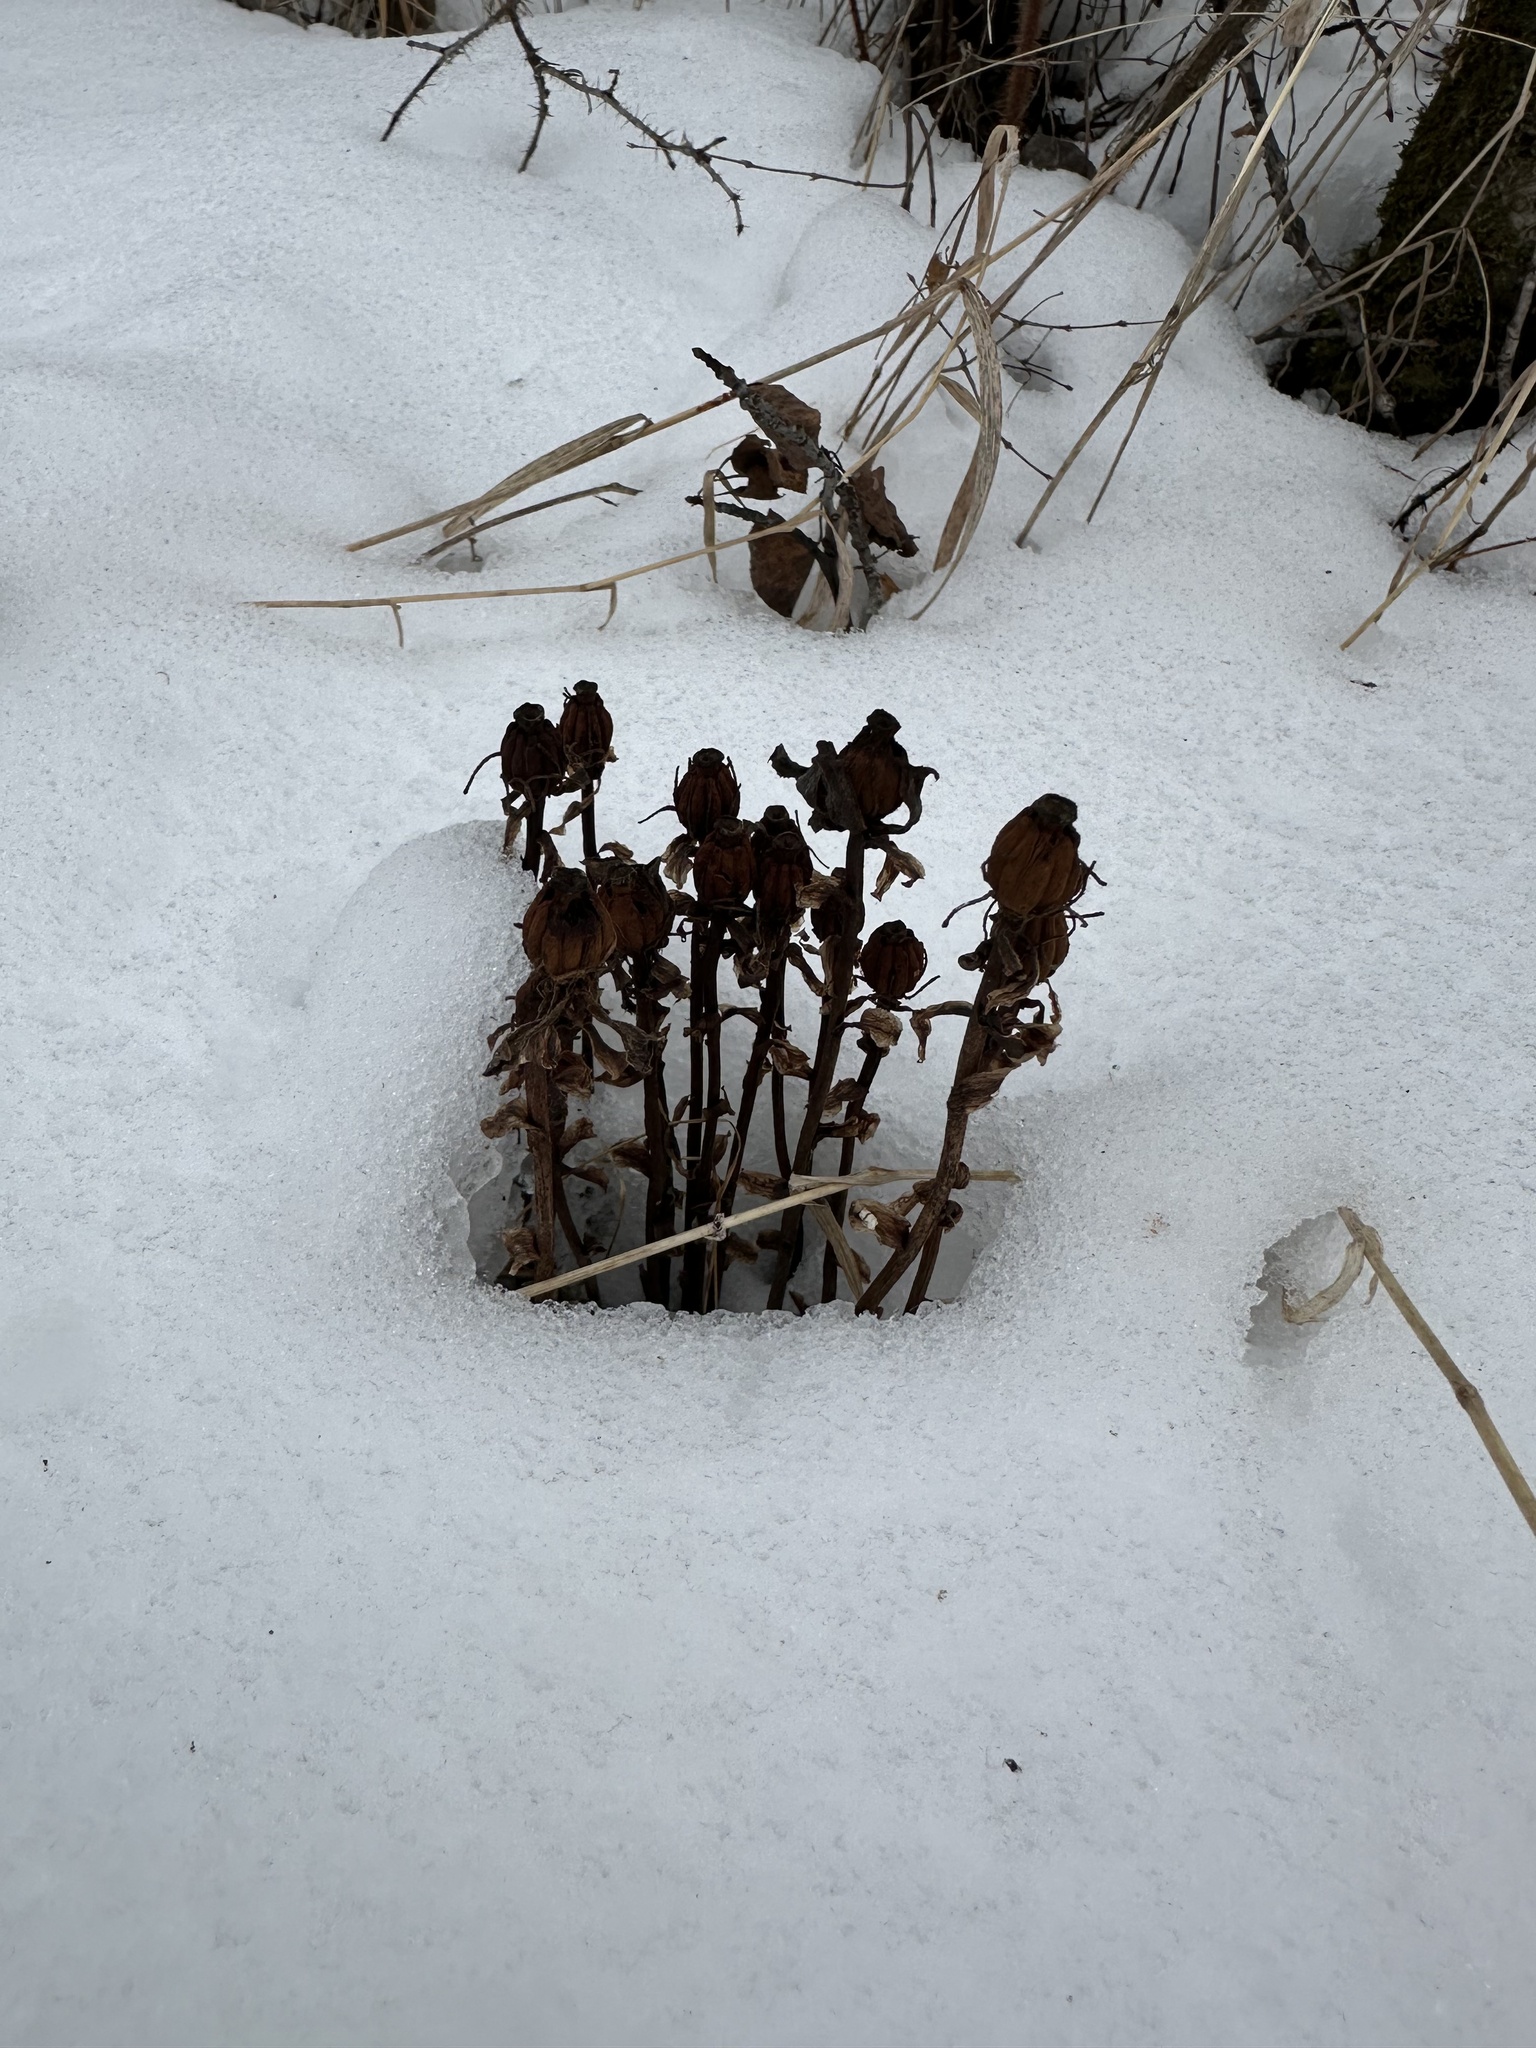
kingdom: Plantae
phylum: Tracheophyta
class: Magnoliopsida
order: Ericales
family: Ericaceae
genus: Monotropa
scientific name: Monotropa uniflora
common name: Convulsion root
